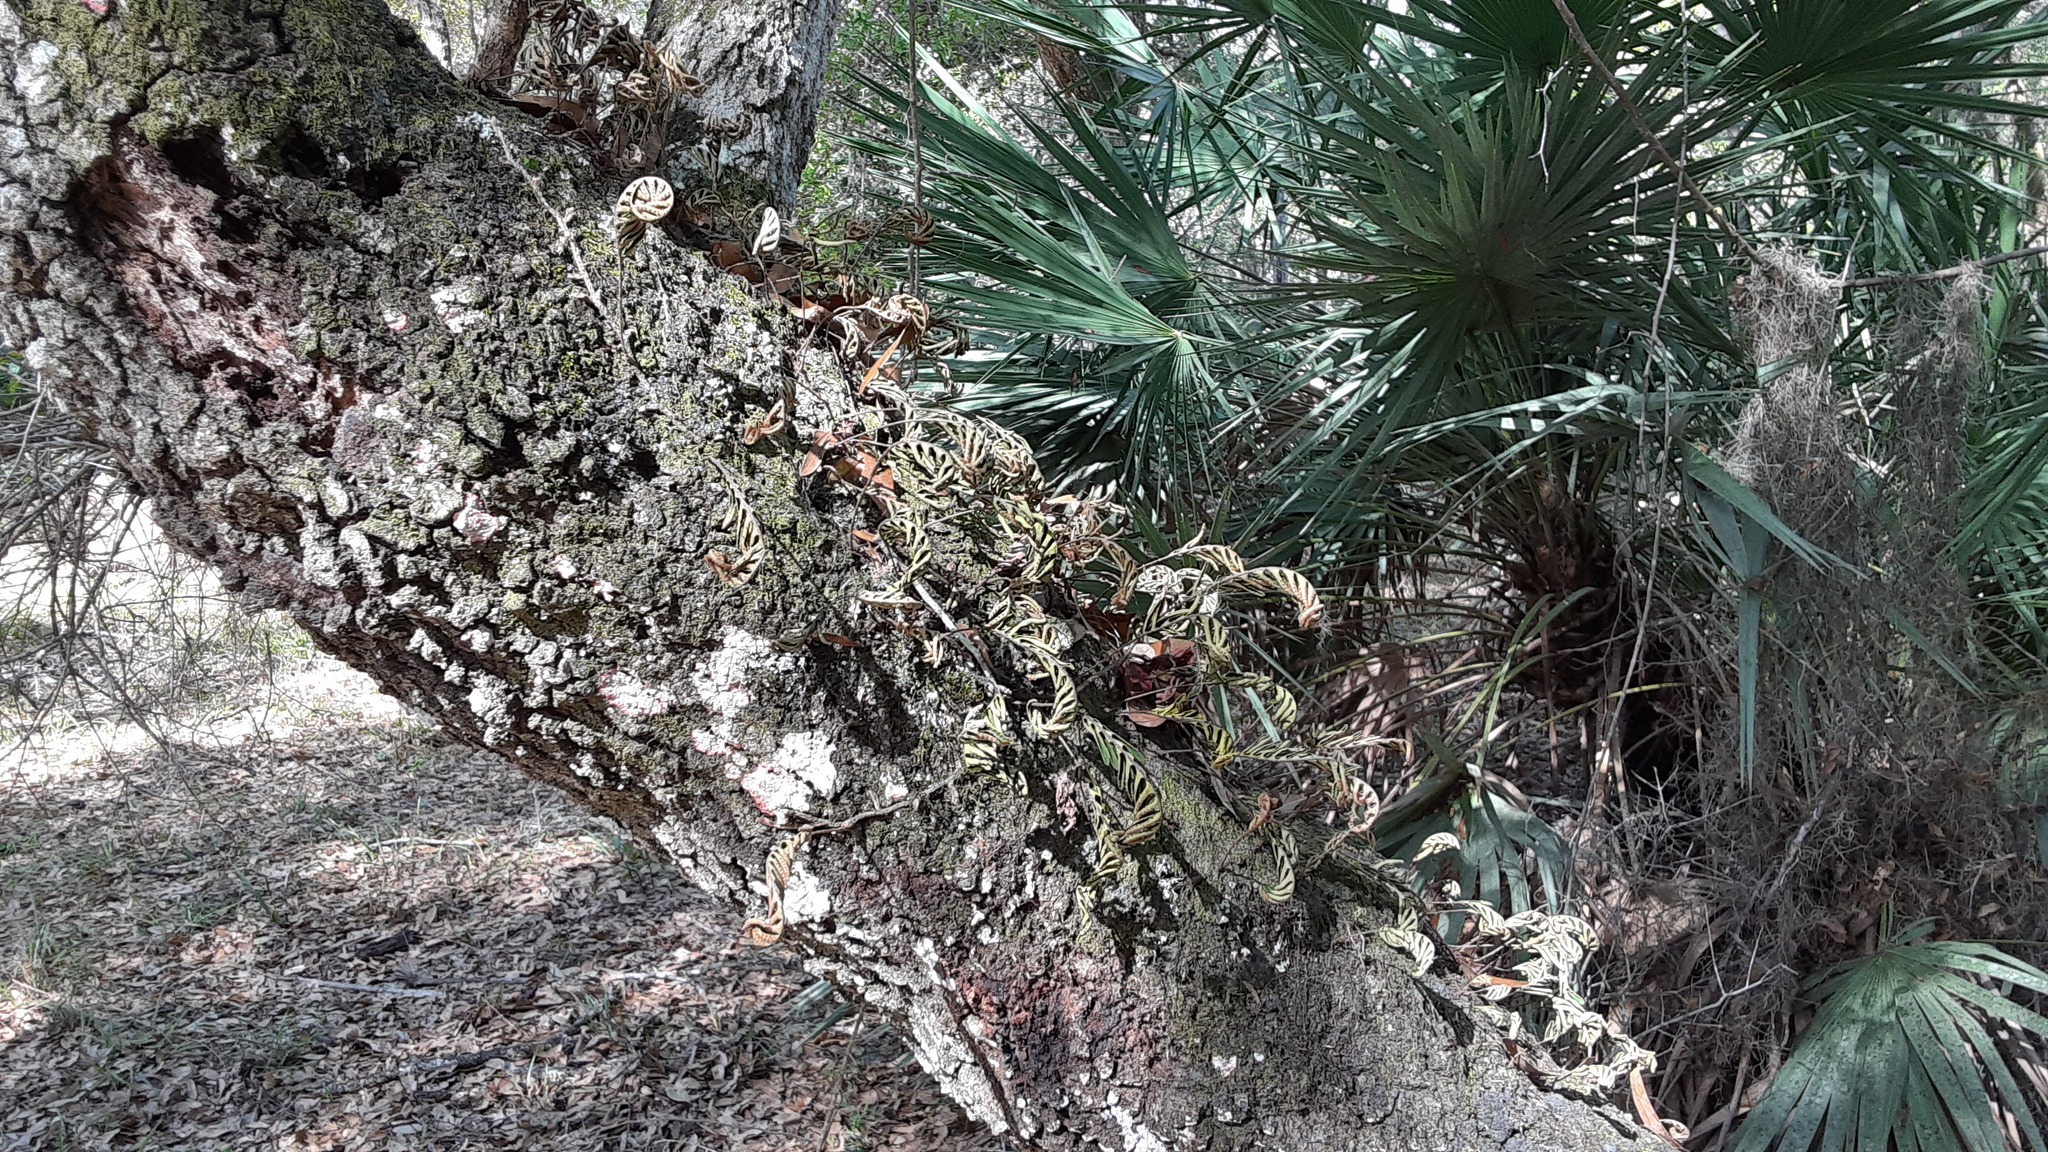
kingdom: Plantae
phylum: Tracheophyta
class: Polypodiopsida
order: Polypodiales
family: Polypodiaceae
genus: Pleopeltis
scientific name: Pleopeltis michauxiana
